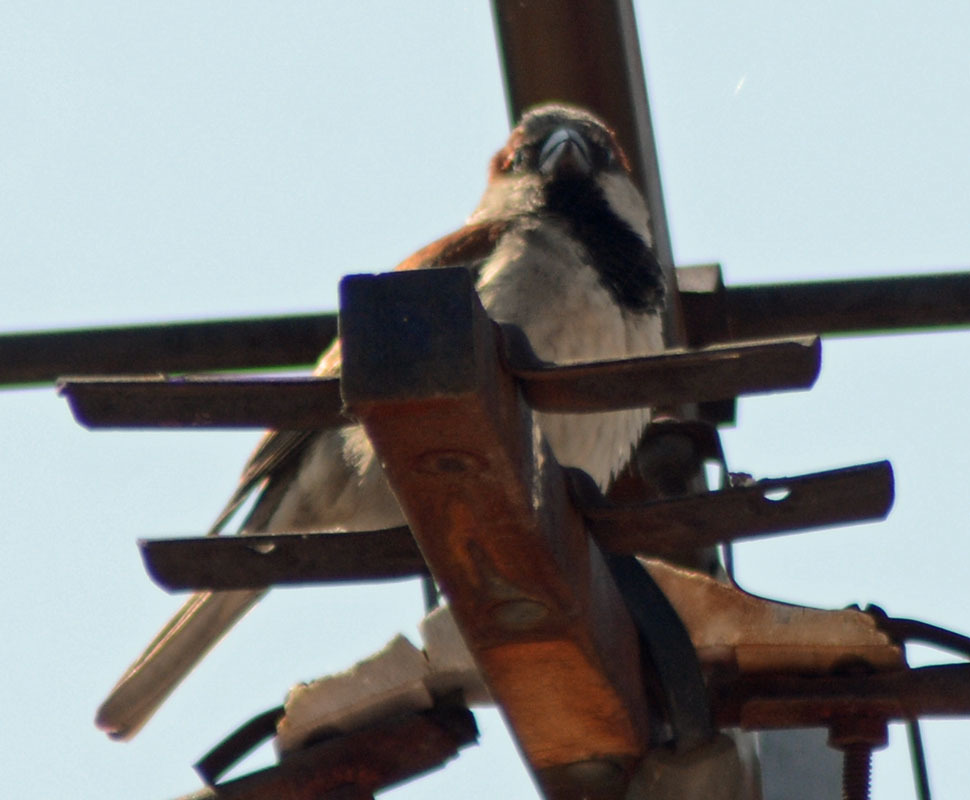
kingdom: Animalia
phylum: Chordata
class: Aves
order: Passeriformes
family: Passeridae
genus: Passer
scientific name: Passer domesticus
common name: House sparrow
